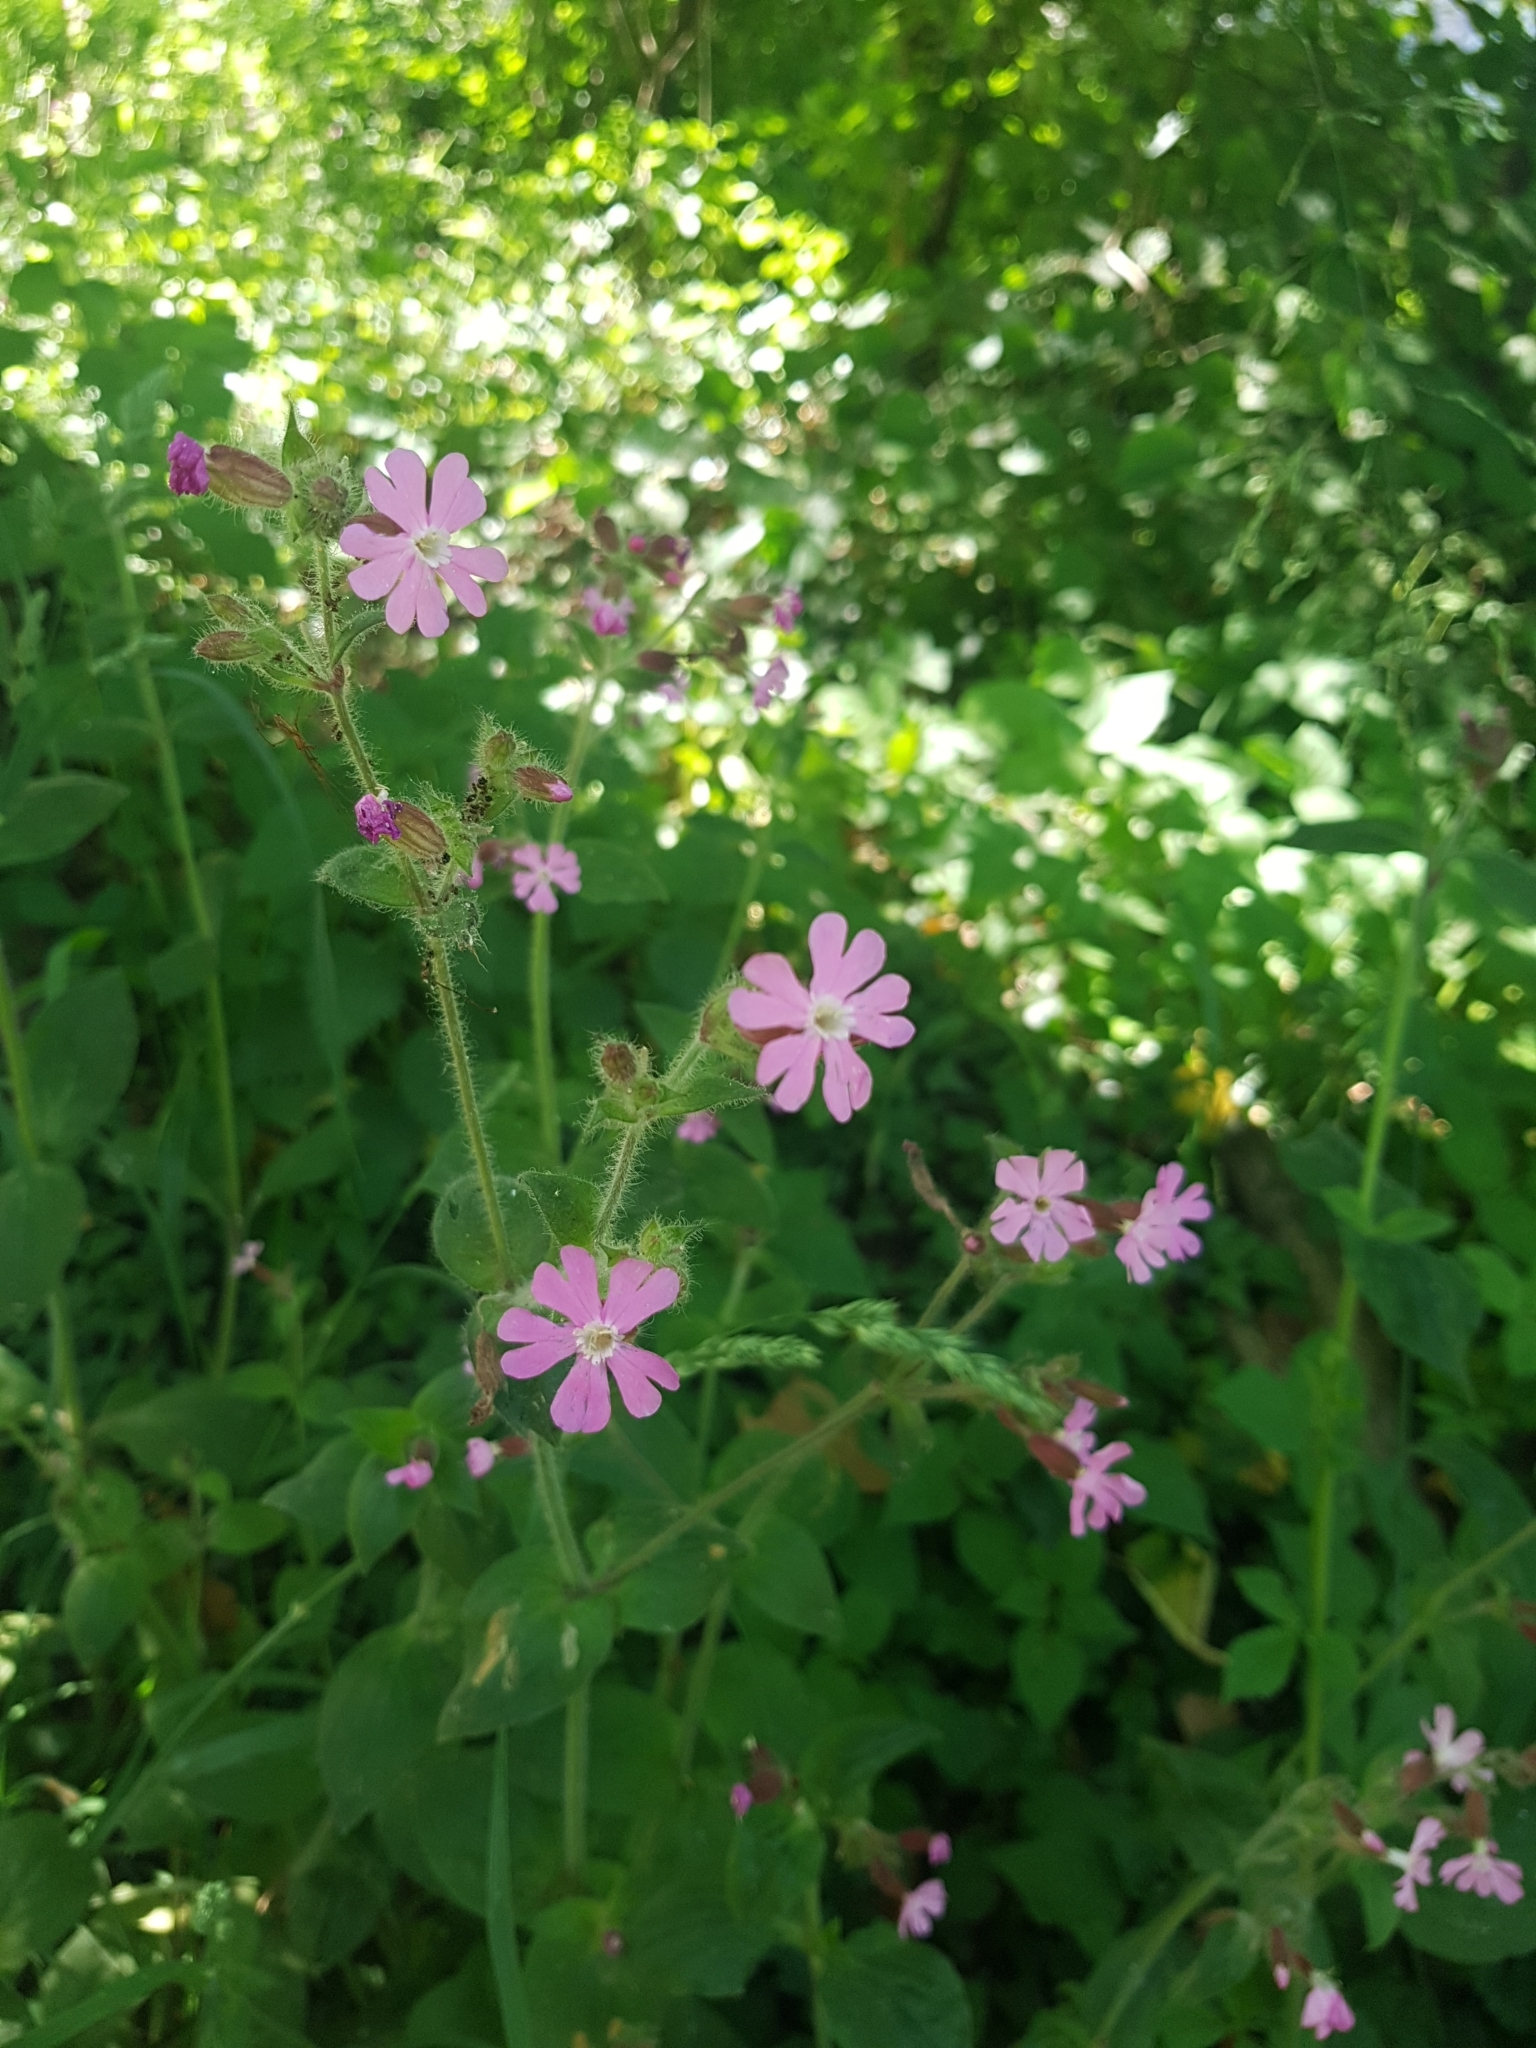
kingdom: Plantae
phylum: Tracheophyta
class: Magnoliopsida
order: Caryophyllales
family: Caryophyllaceae
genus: Silene
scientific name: Silene dioica
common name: Red campion
